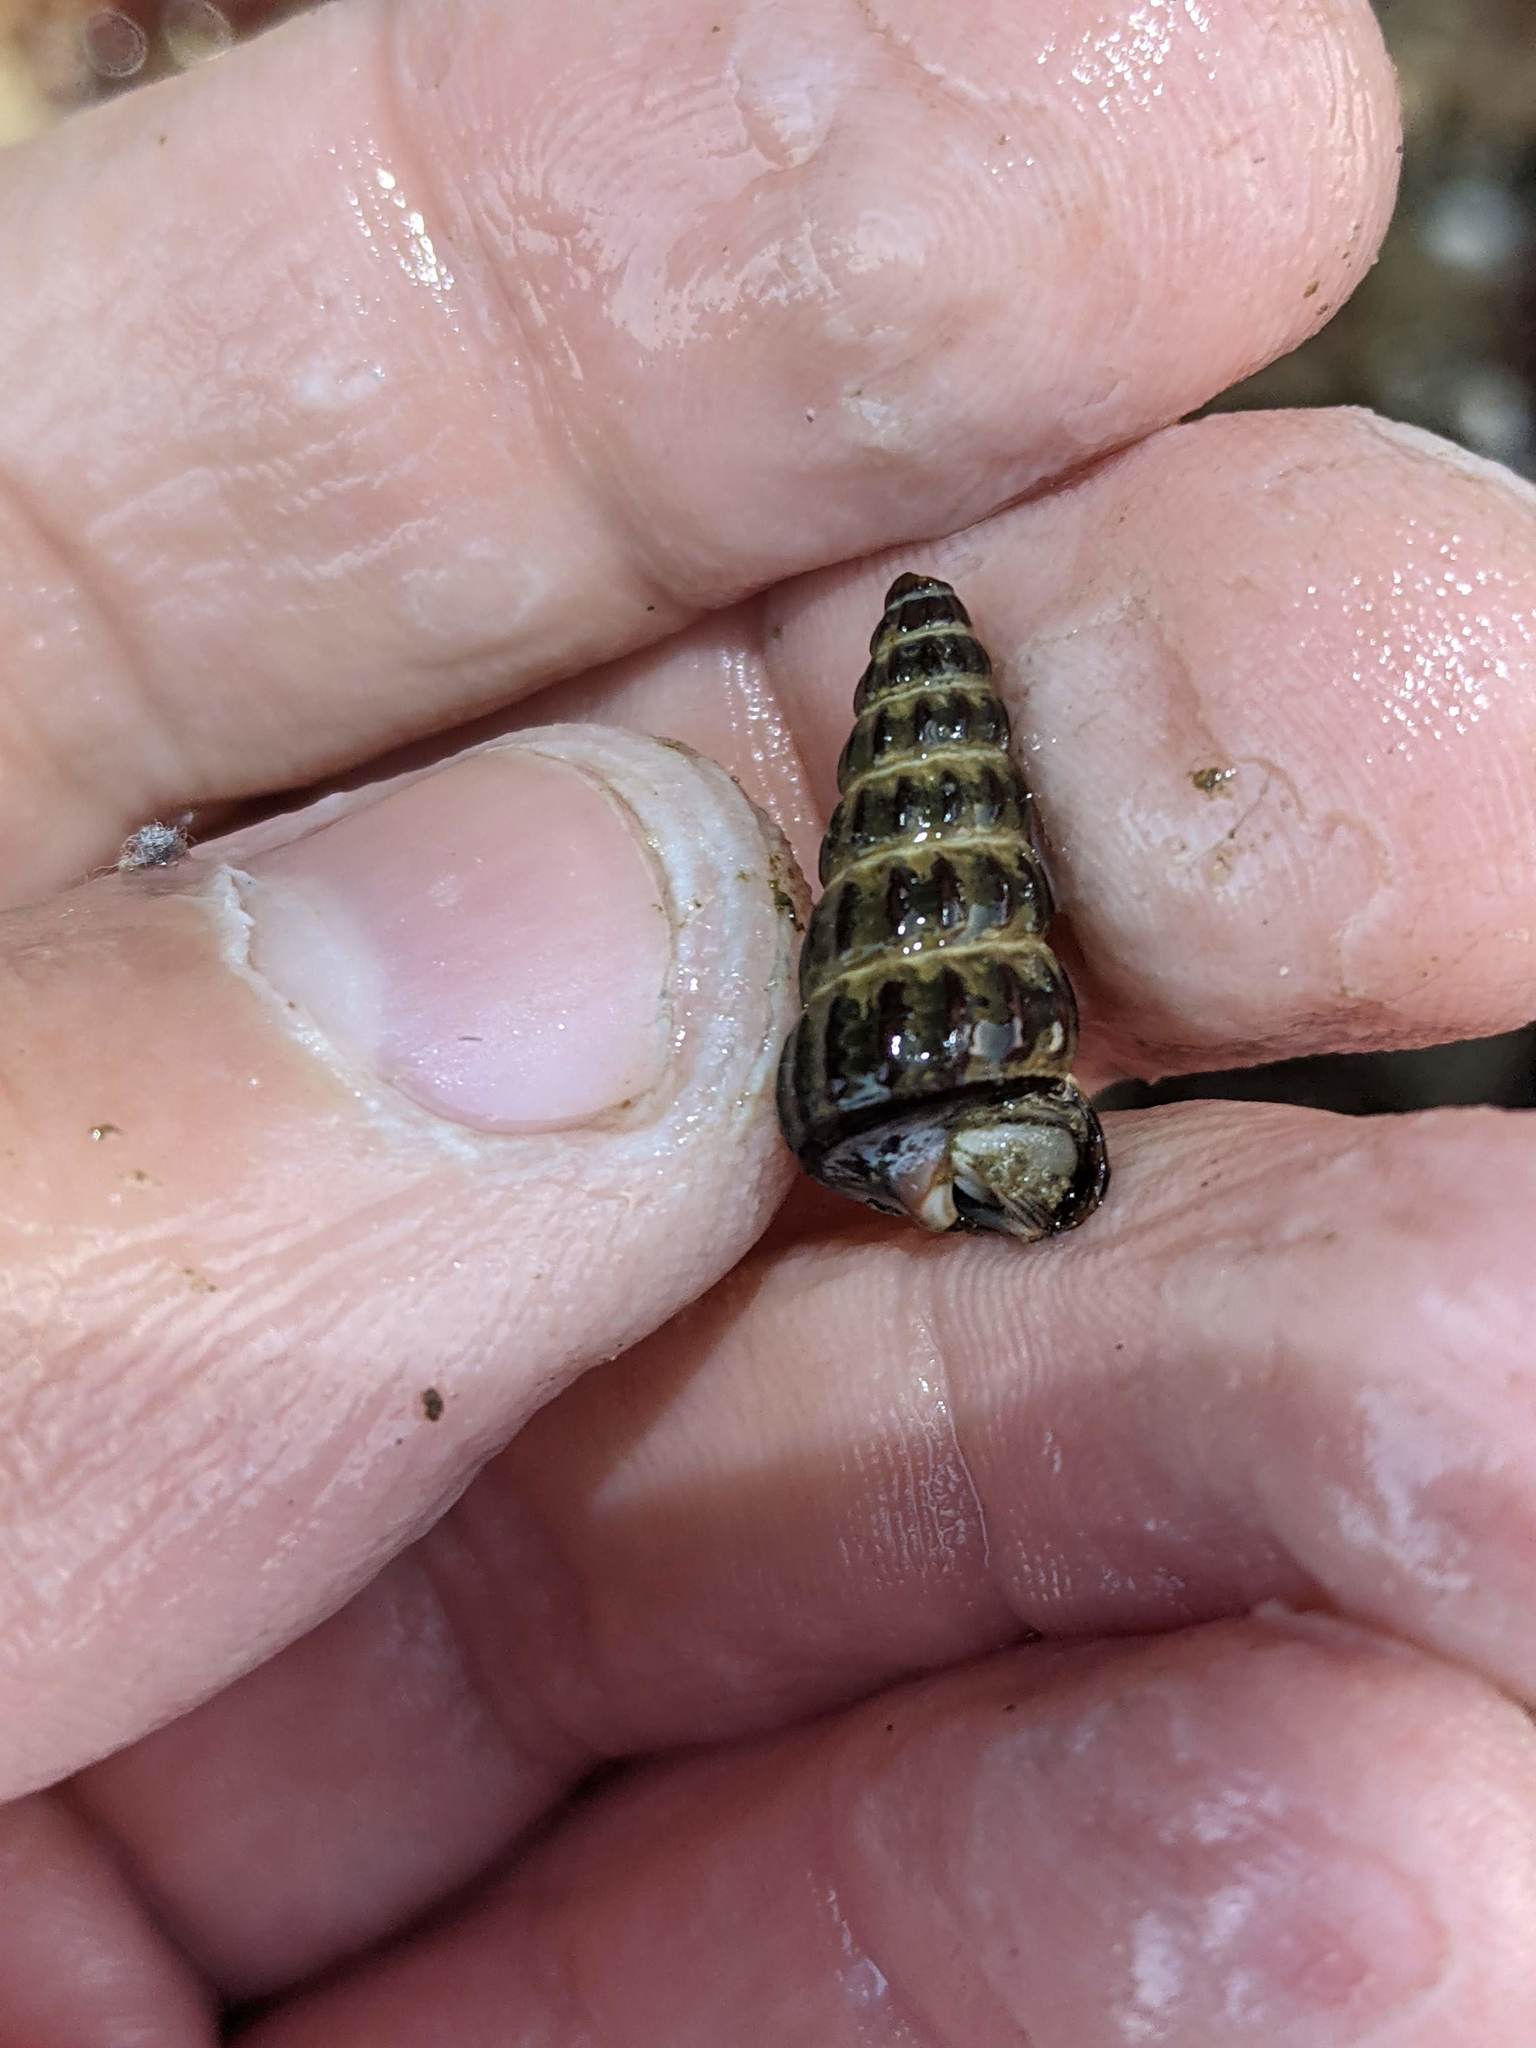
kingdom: Animalia
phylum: Mollusca
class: Gastropoda
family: Potamididae
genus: Cerithideopsis
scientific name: Cerithideopsis californica
